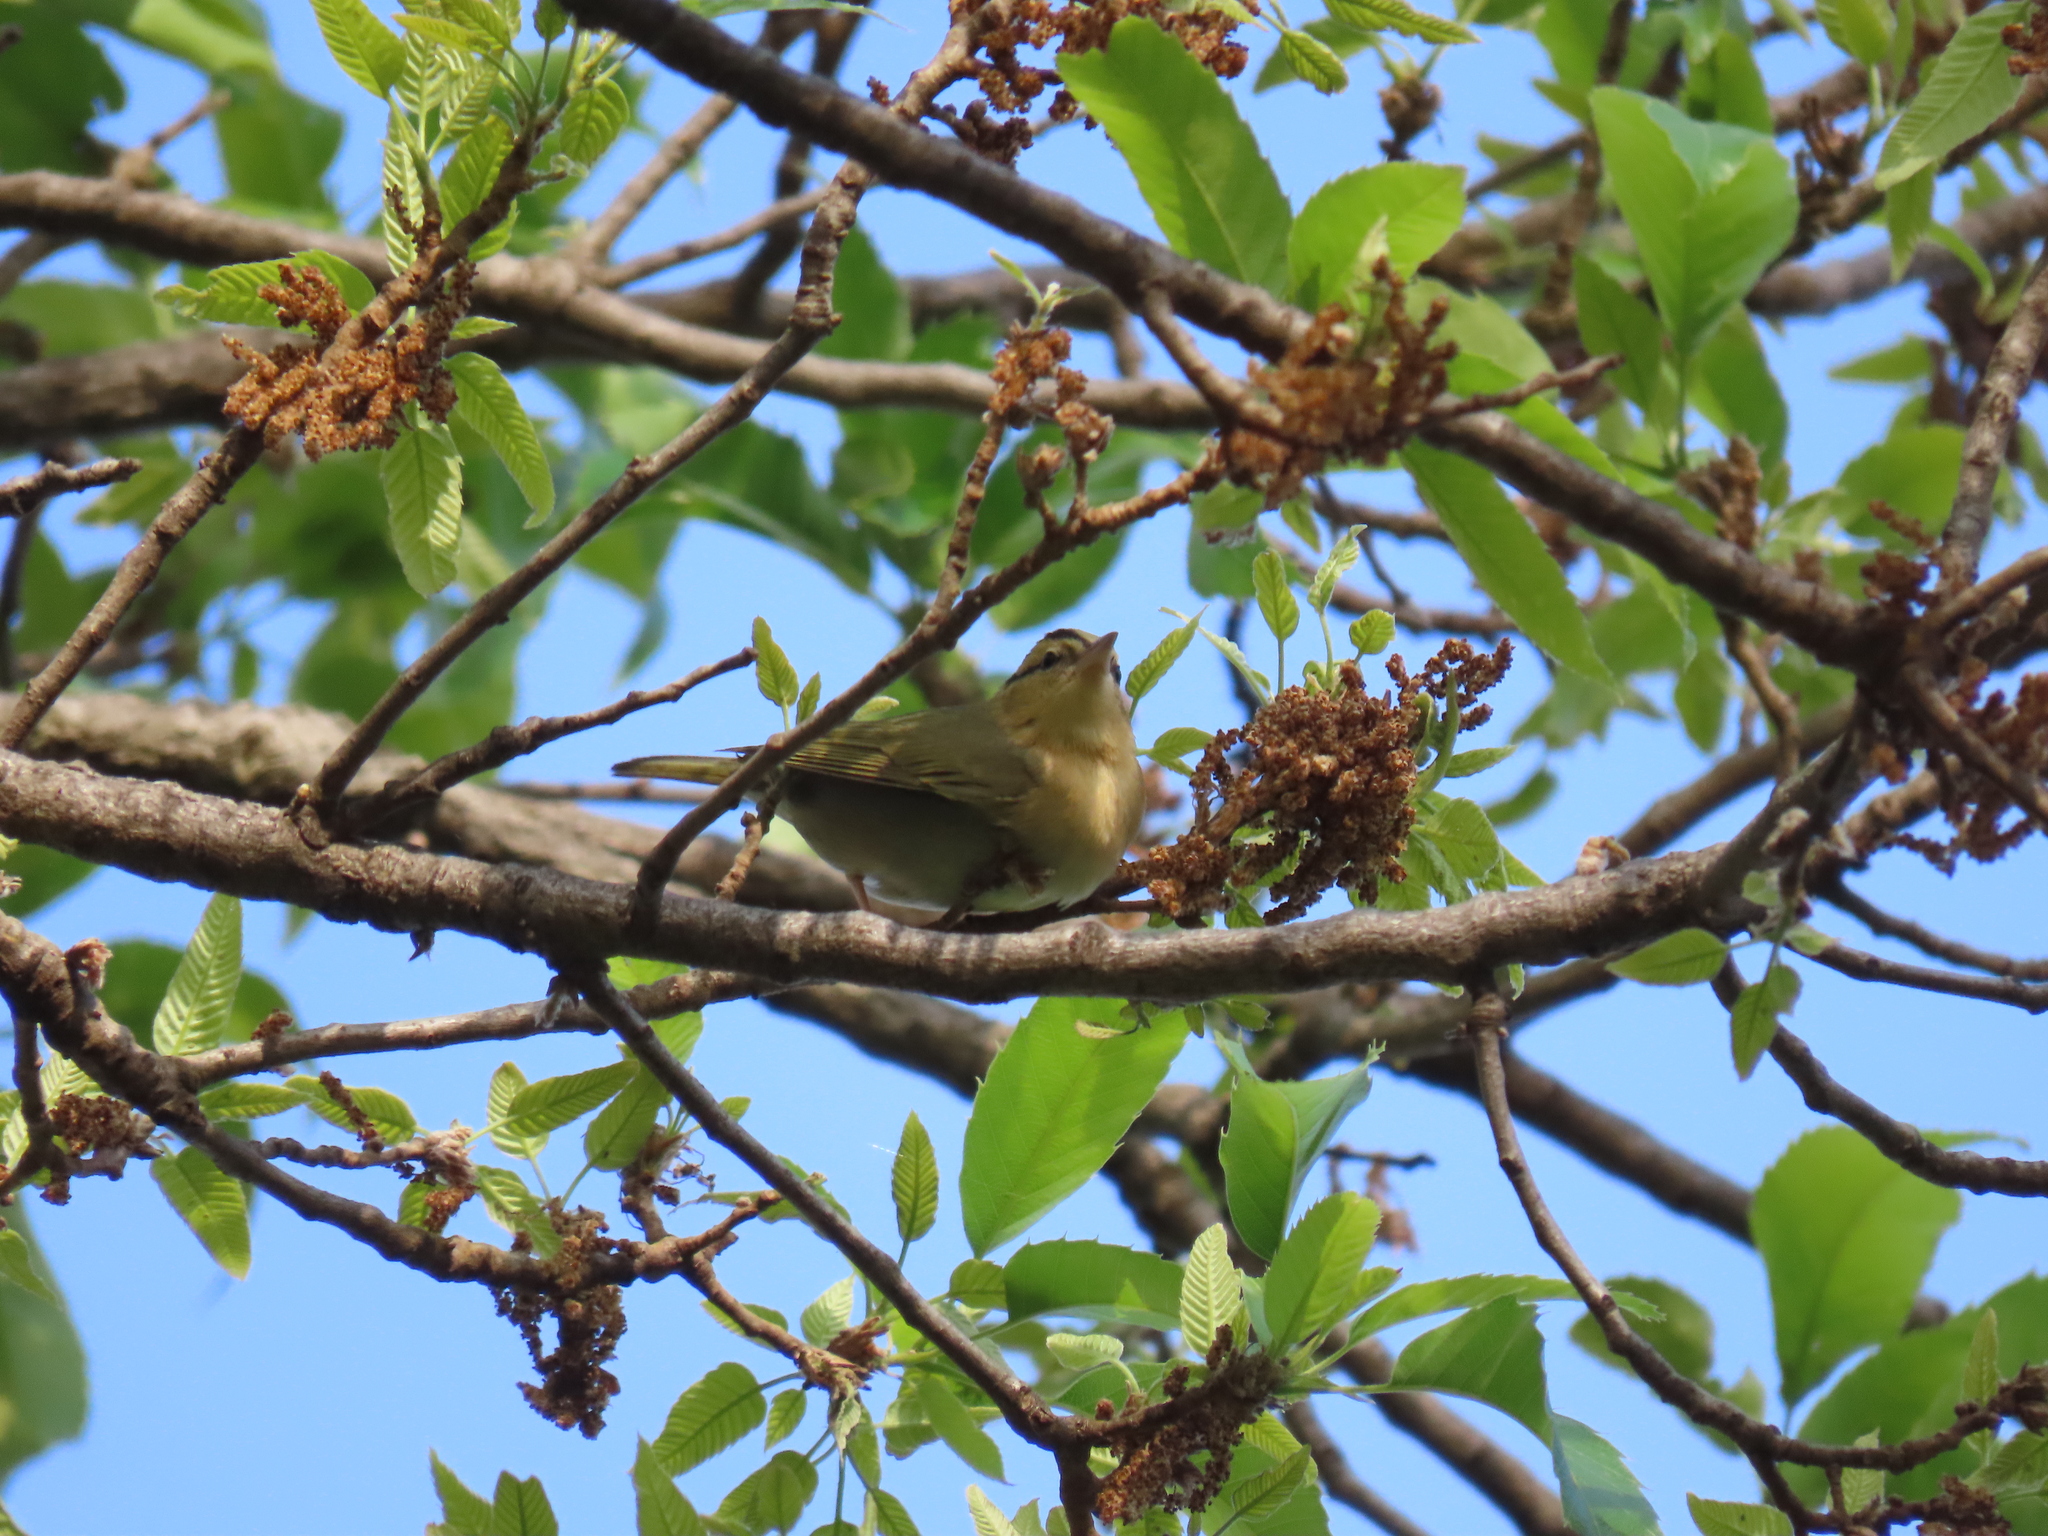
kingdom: Animalia
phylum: Chordata
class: Aves
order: Passeriformes
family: Parulidae
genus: Helmitheros
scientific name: Helmitheros vermivorum
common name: Worm-eating warbler
